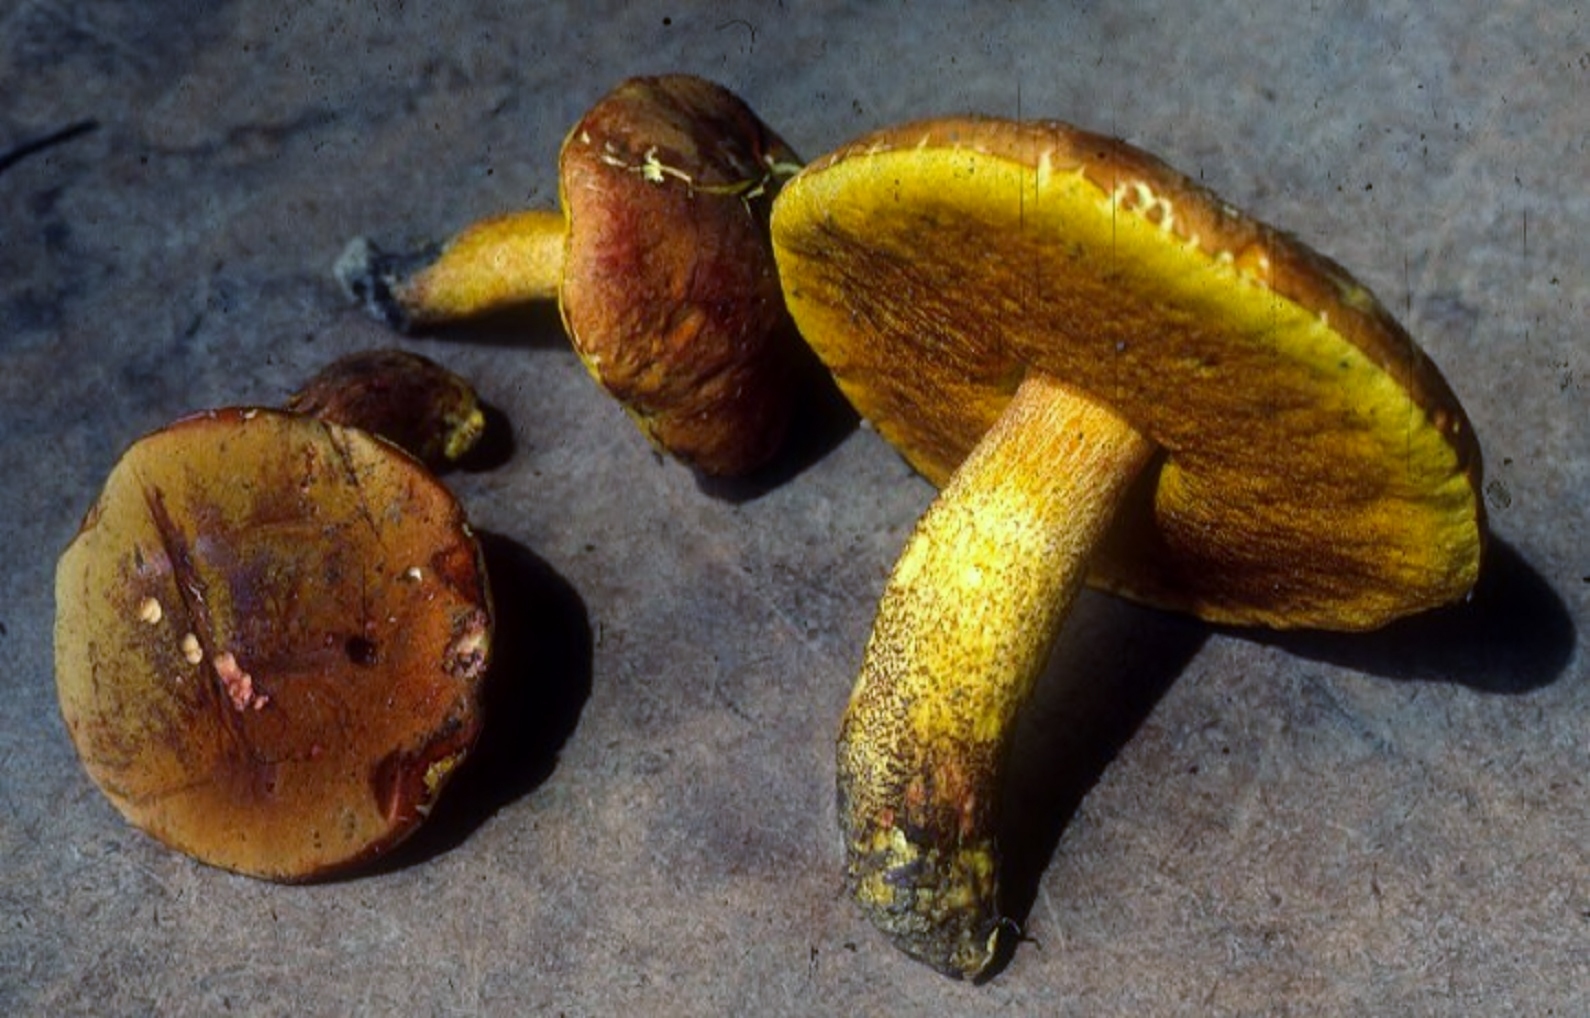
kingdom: Fungi
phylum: Basidiomycota
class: Agaricomycetes
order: Boletales
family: Boletaceae
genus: Xerocomus
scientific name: Xerocomus morrisii
